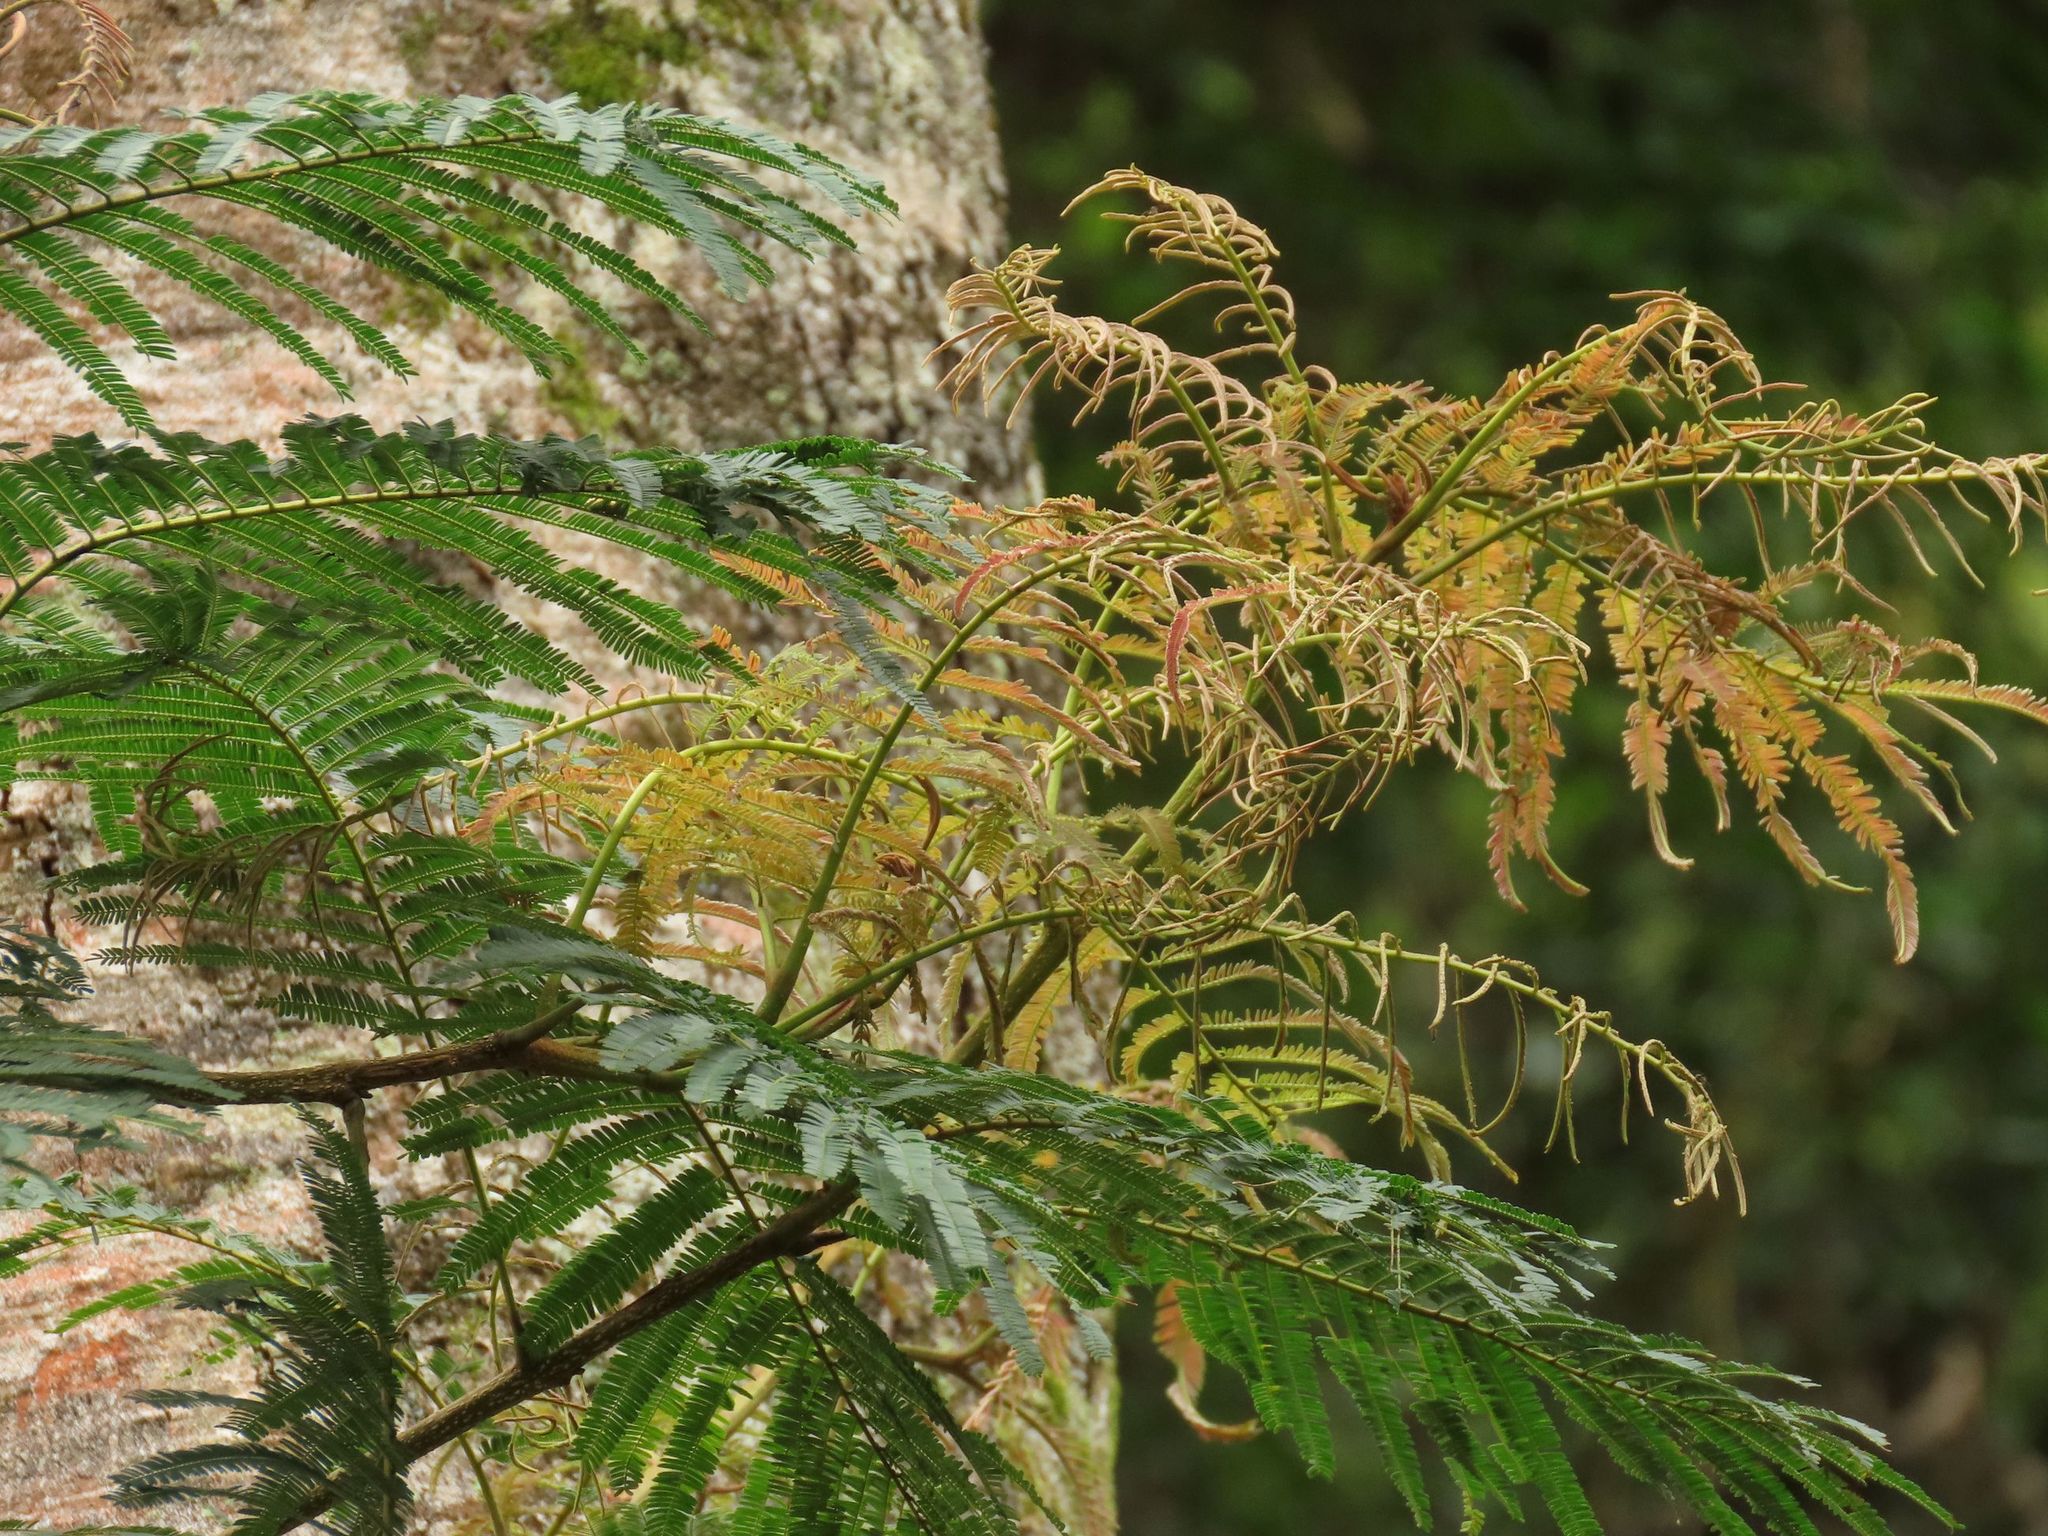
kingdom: Plantae
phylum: Tracheophyta
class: Magnoliopsida
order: Fabales
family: Fabaceae
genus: Falcataria
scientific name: Falcataria toona
